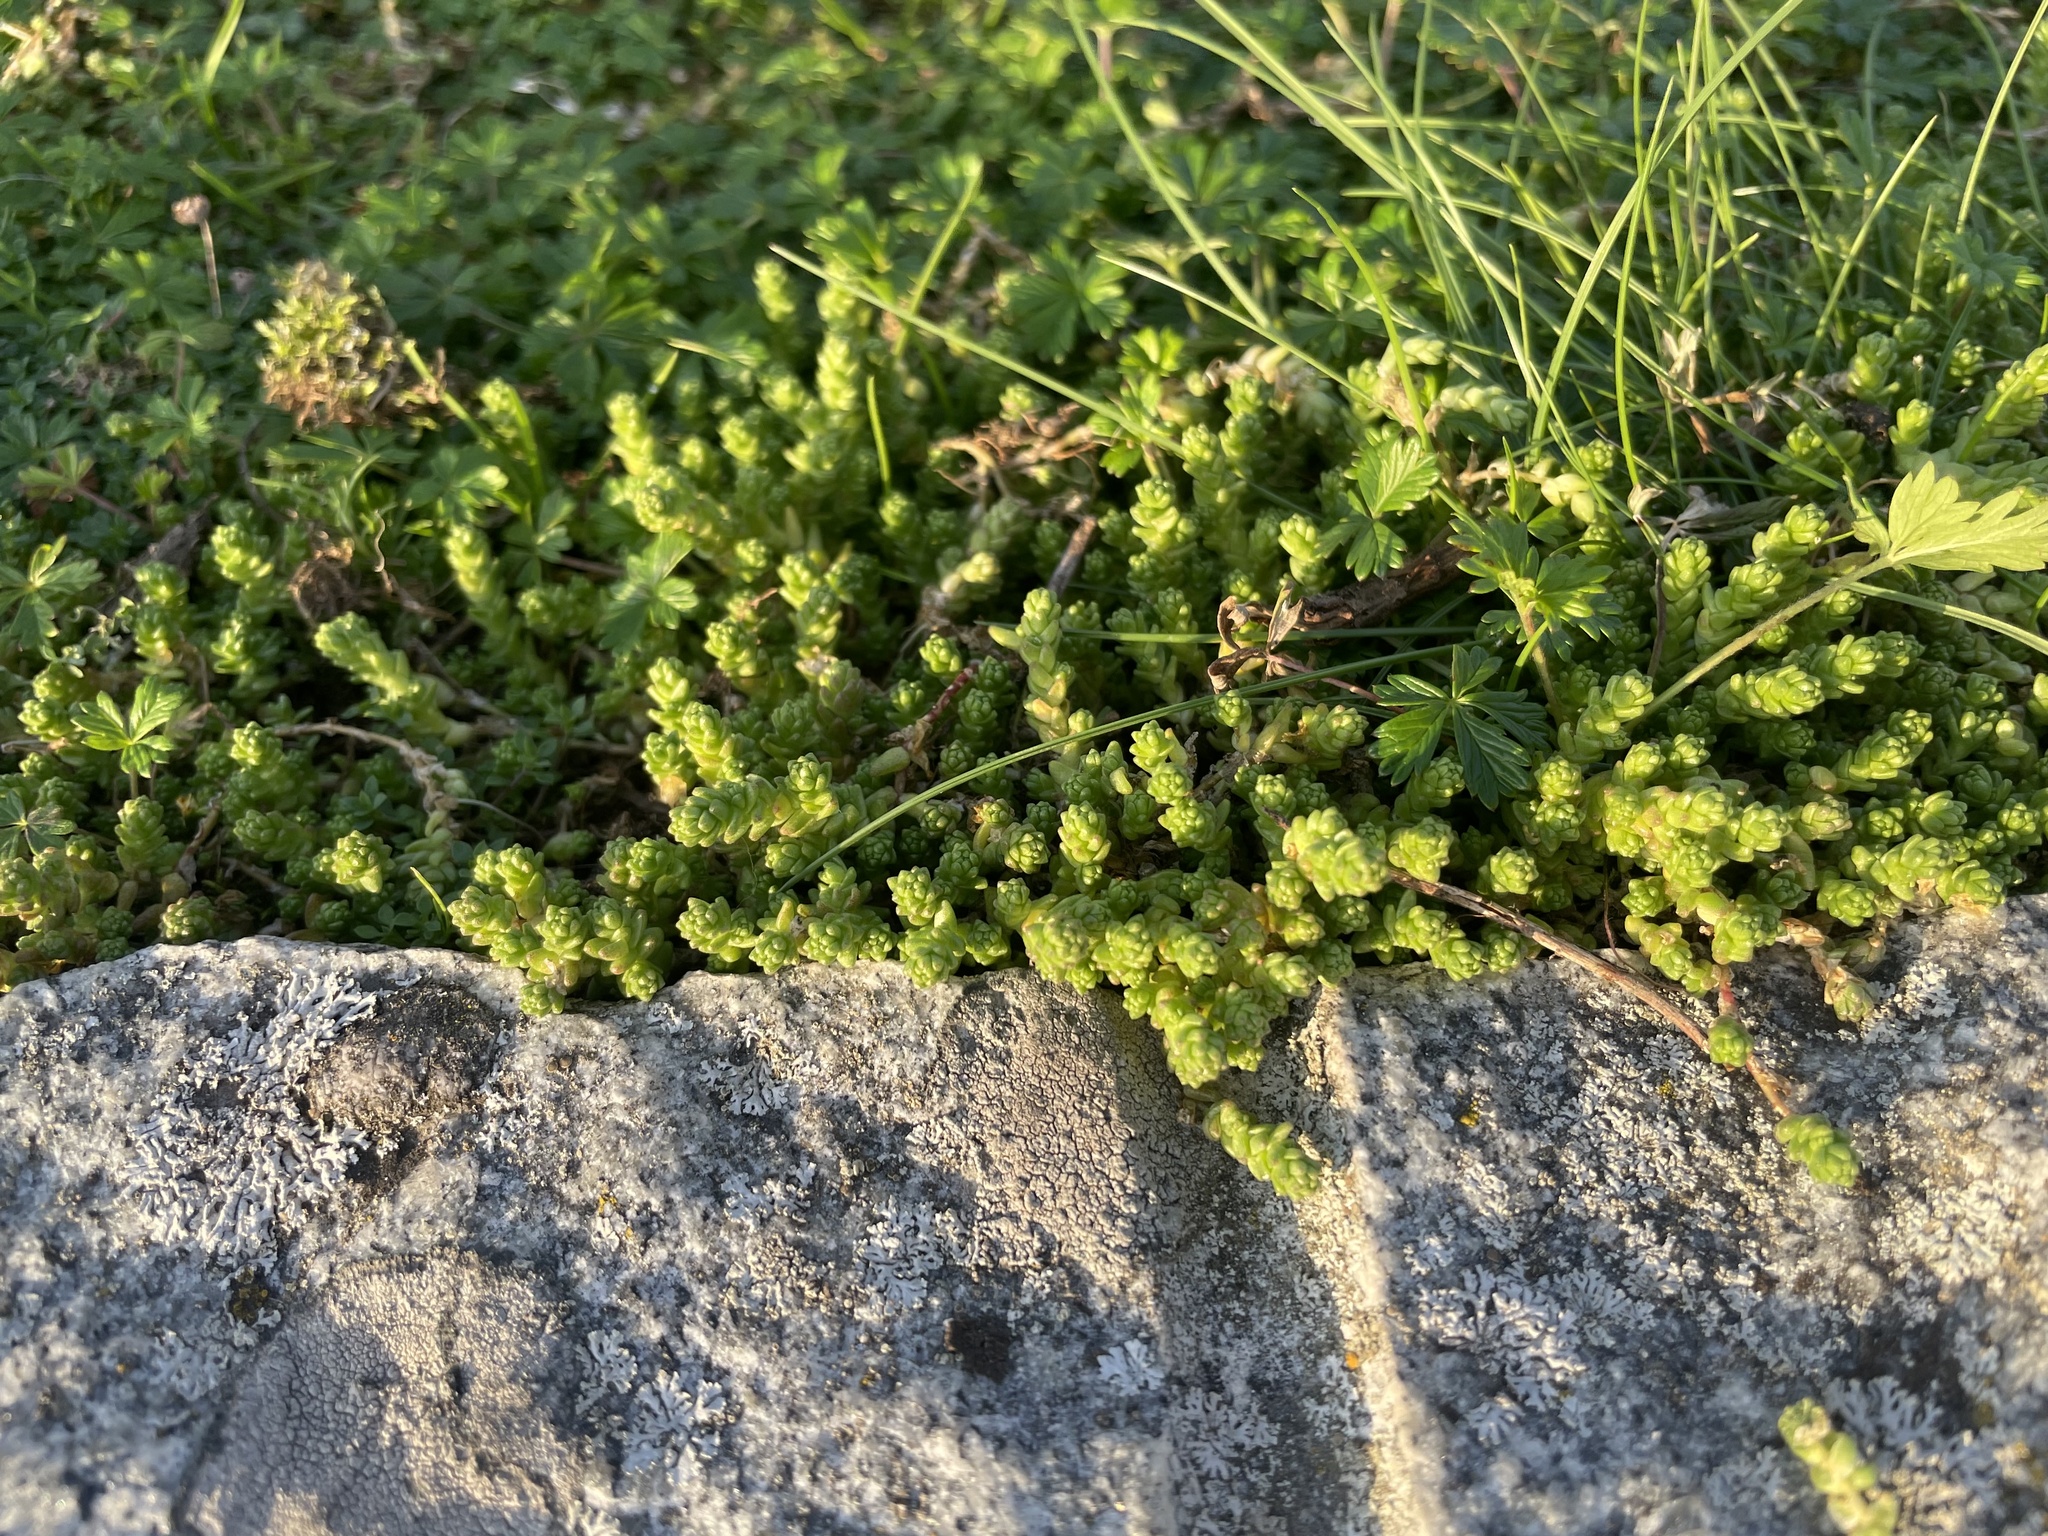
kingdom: Plantae
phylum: Tracheophyta
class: Magnoliopsida
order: Saxifragales
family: Crassulaceae
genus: Sedum
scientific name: Sedum acre
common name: Biting stonecrop
